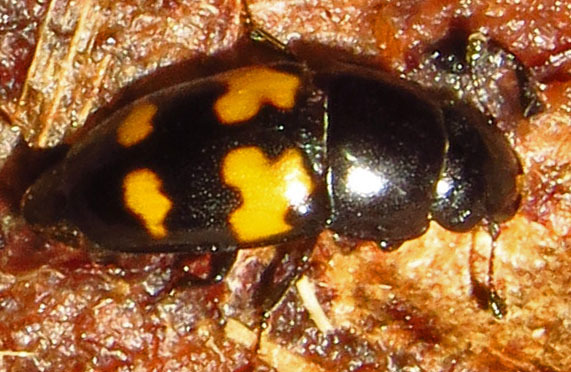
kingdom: Animalia
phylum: Arthropoda
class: Insecta
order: Coleoptera
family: Nitidulidae
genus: Glischrochilus
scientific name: Glischrochilus fasciatus
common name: Picnic beetle
